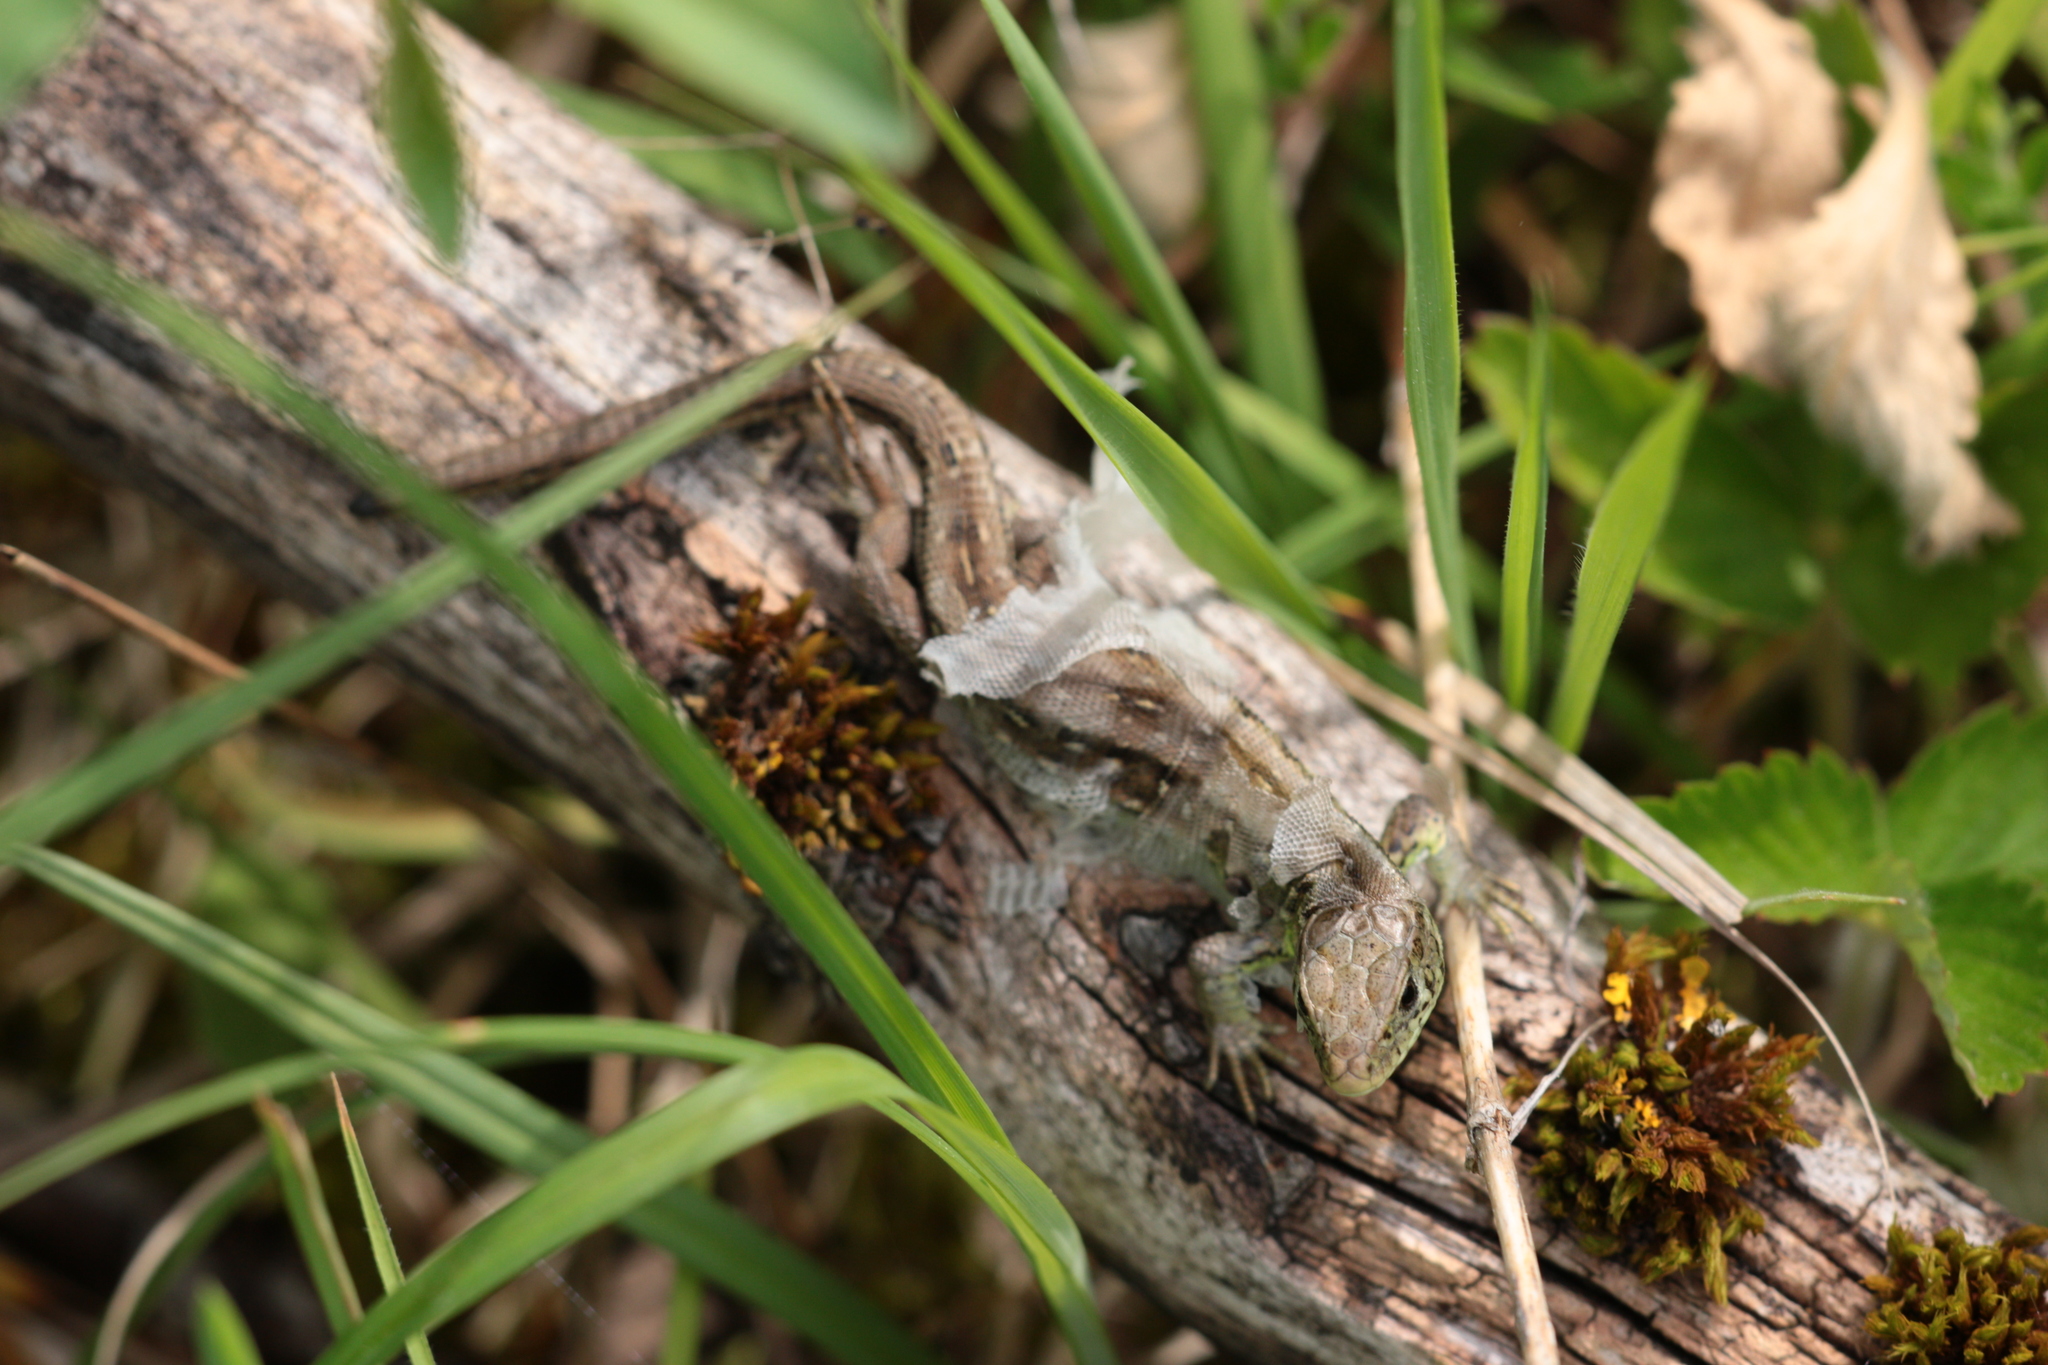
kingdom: Animalia
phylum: Chordata
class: Squamata
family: Lacertidae
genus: Lacerta
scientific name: Lacerta agilis
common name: Sand lizard
